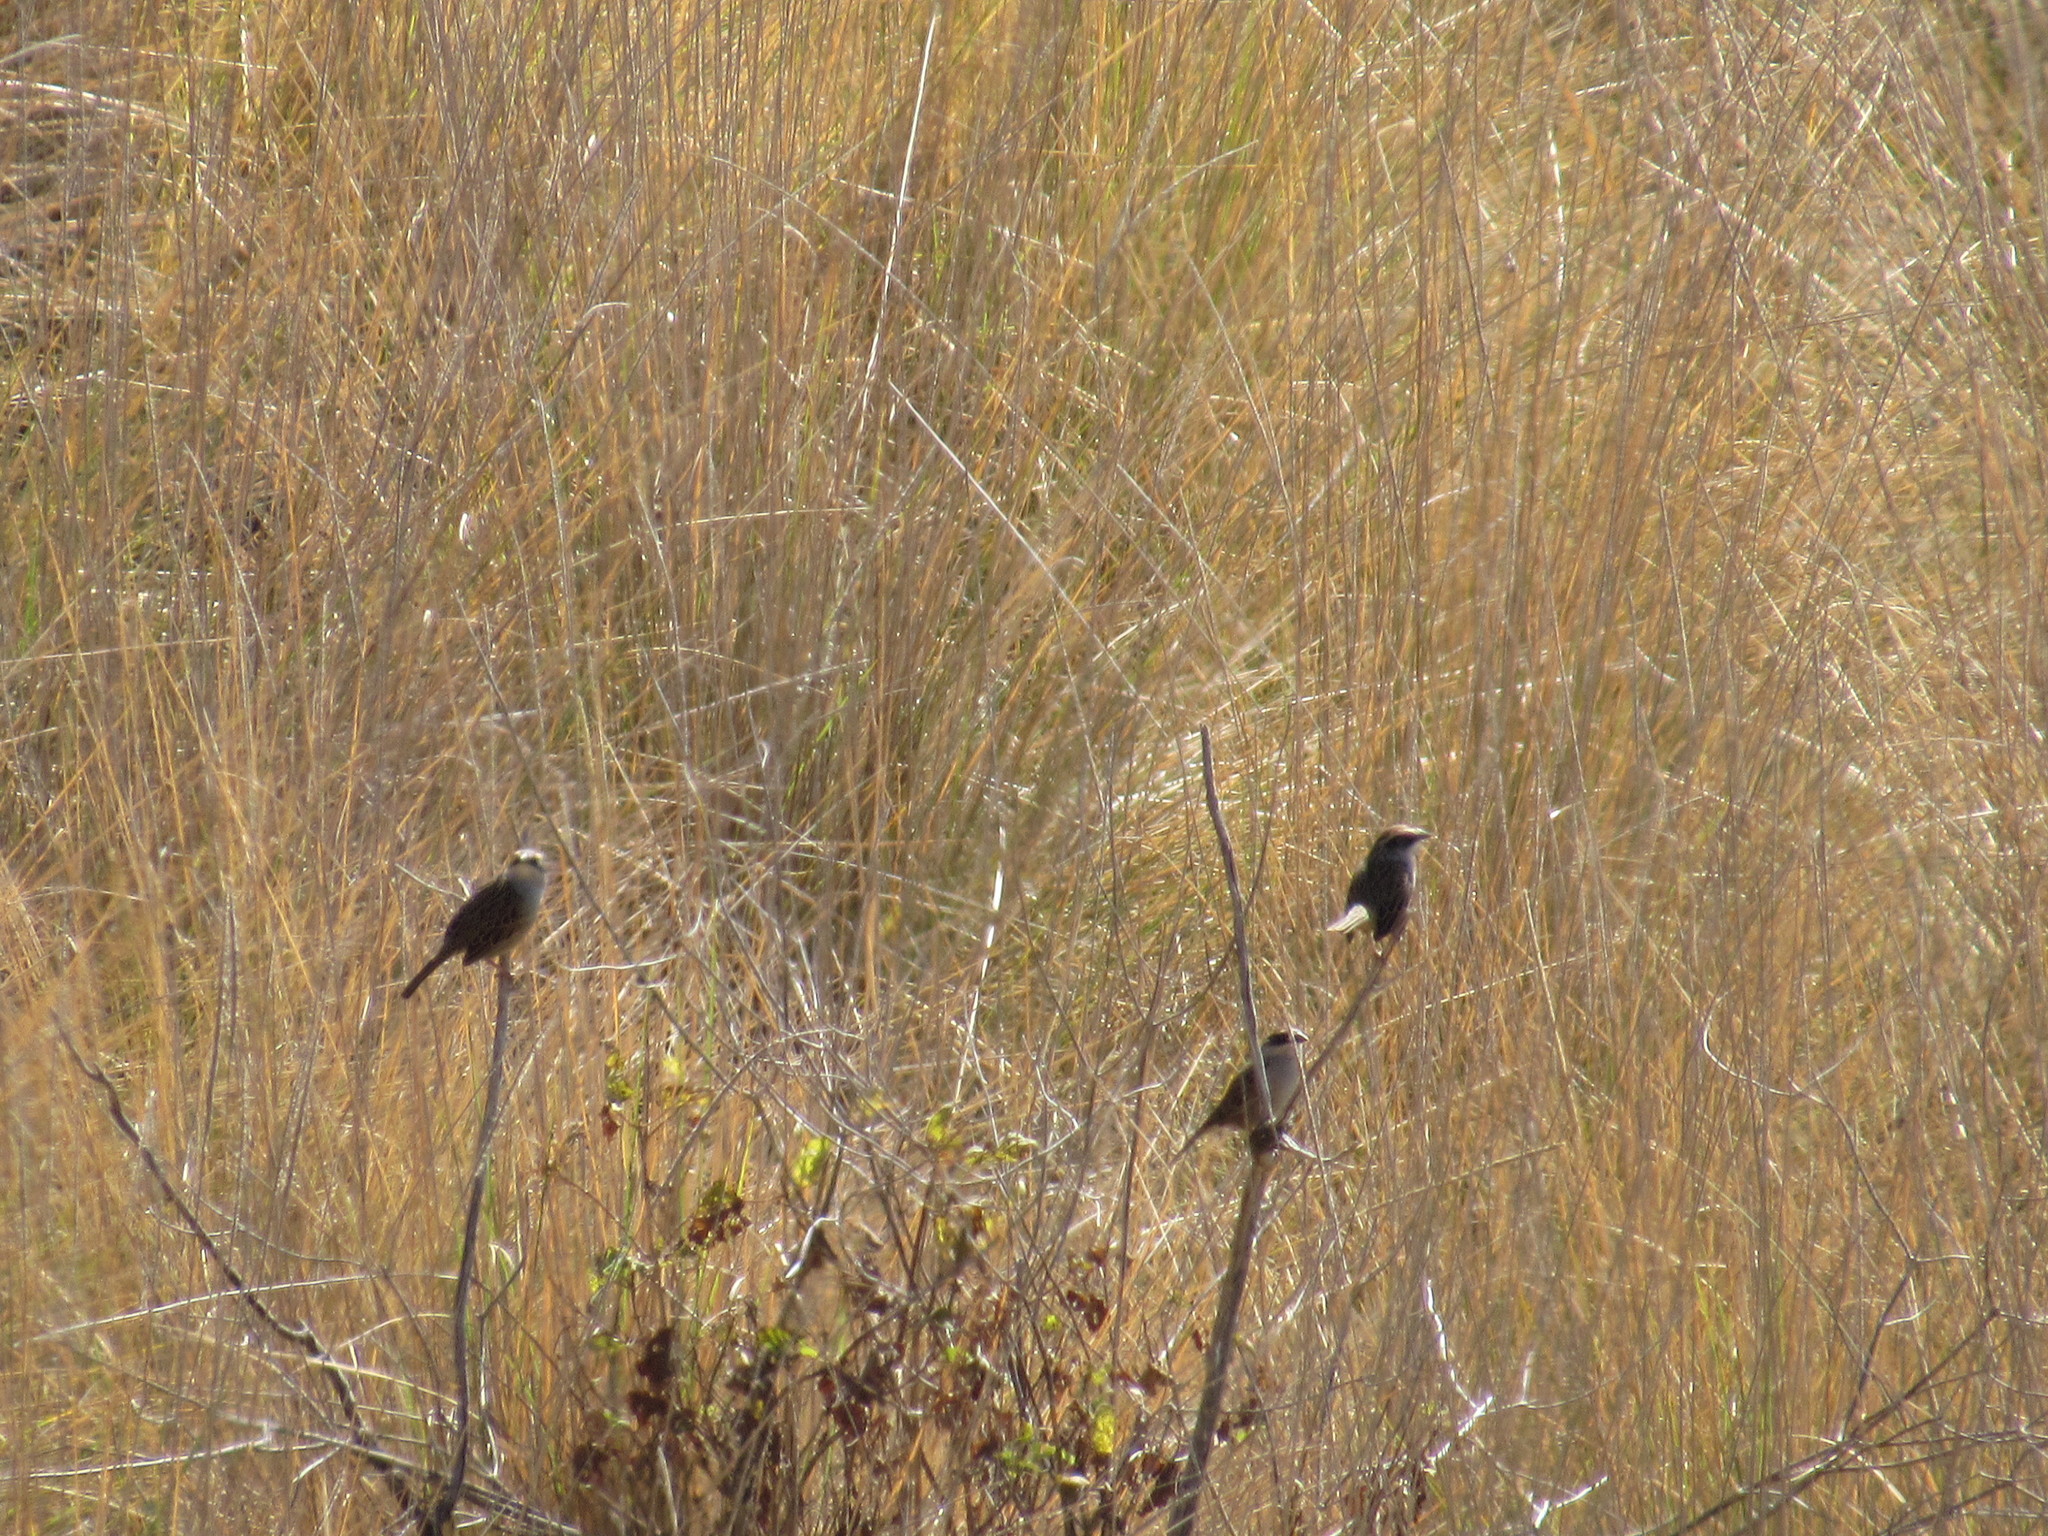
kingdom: Animalia
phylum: Chordata
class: Aves
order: Passeriformes
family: Passerellidae
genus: Oriturus
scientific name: Oriturus superciliosus
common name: Striped sparrow
